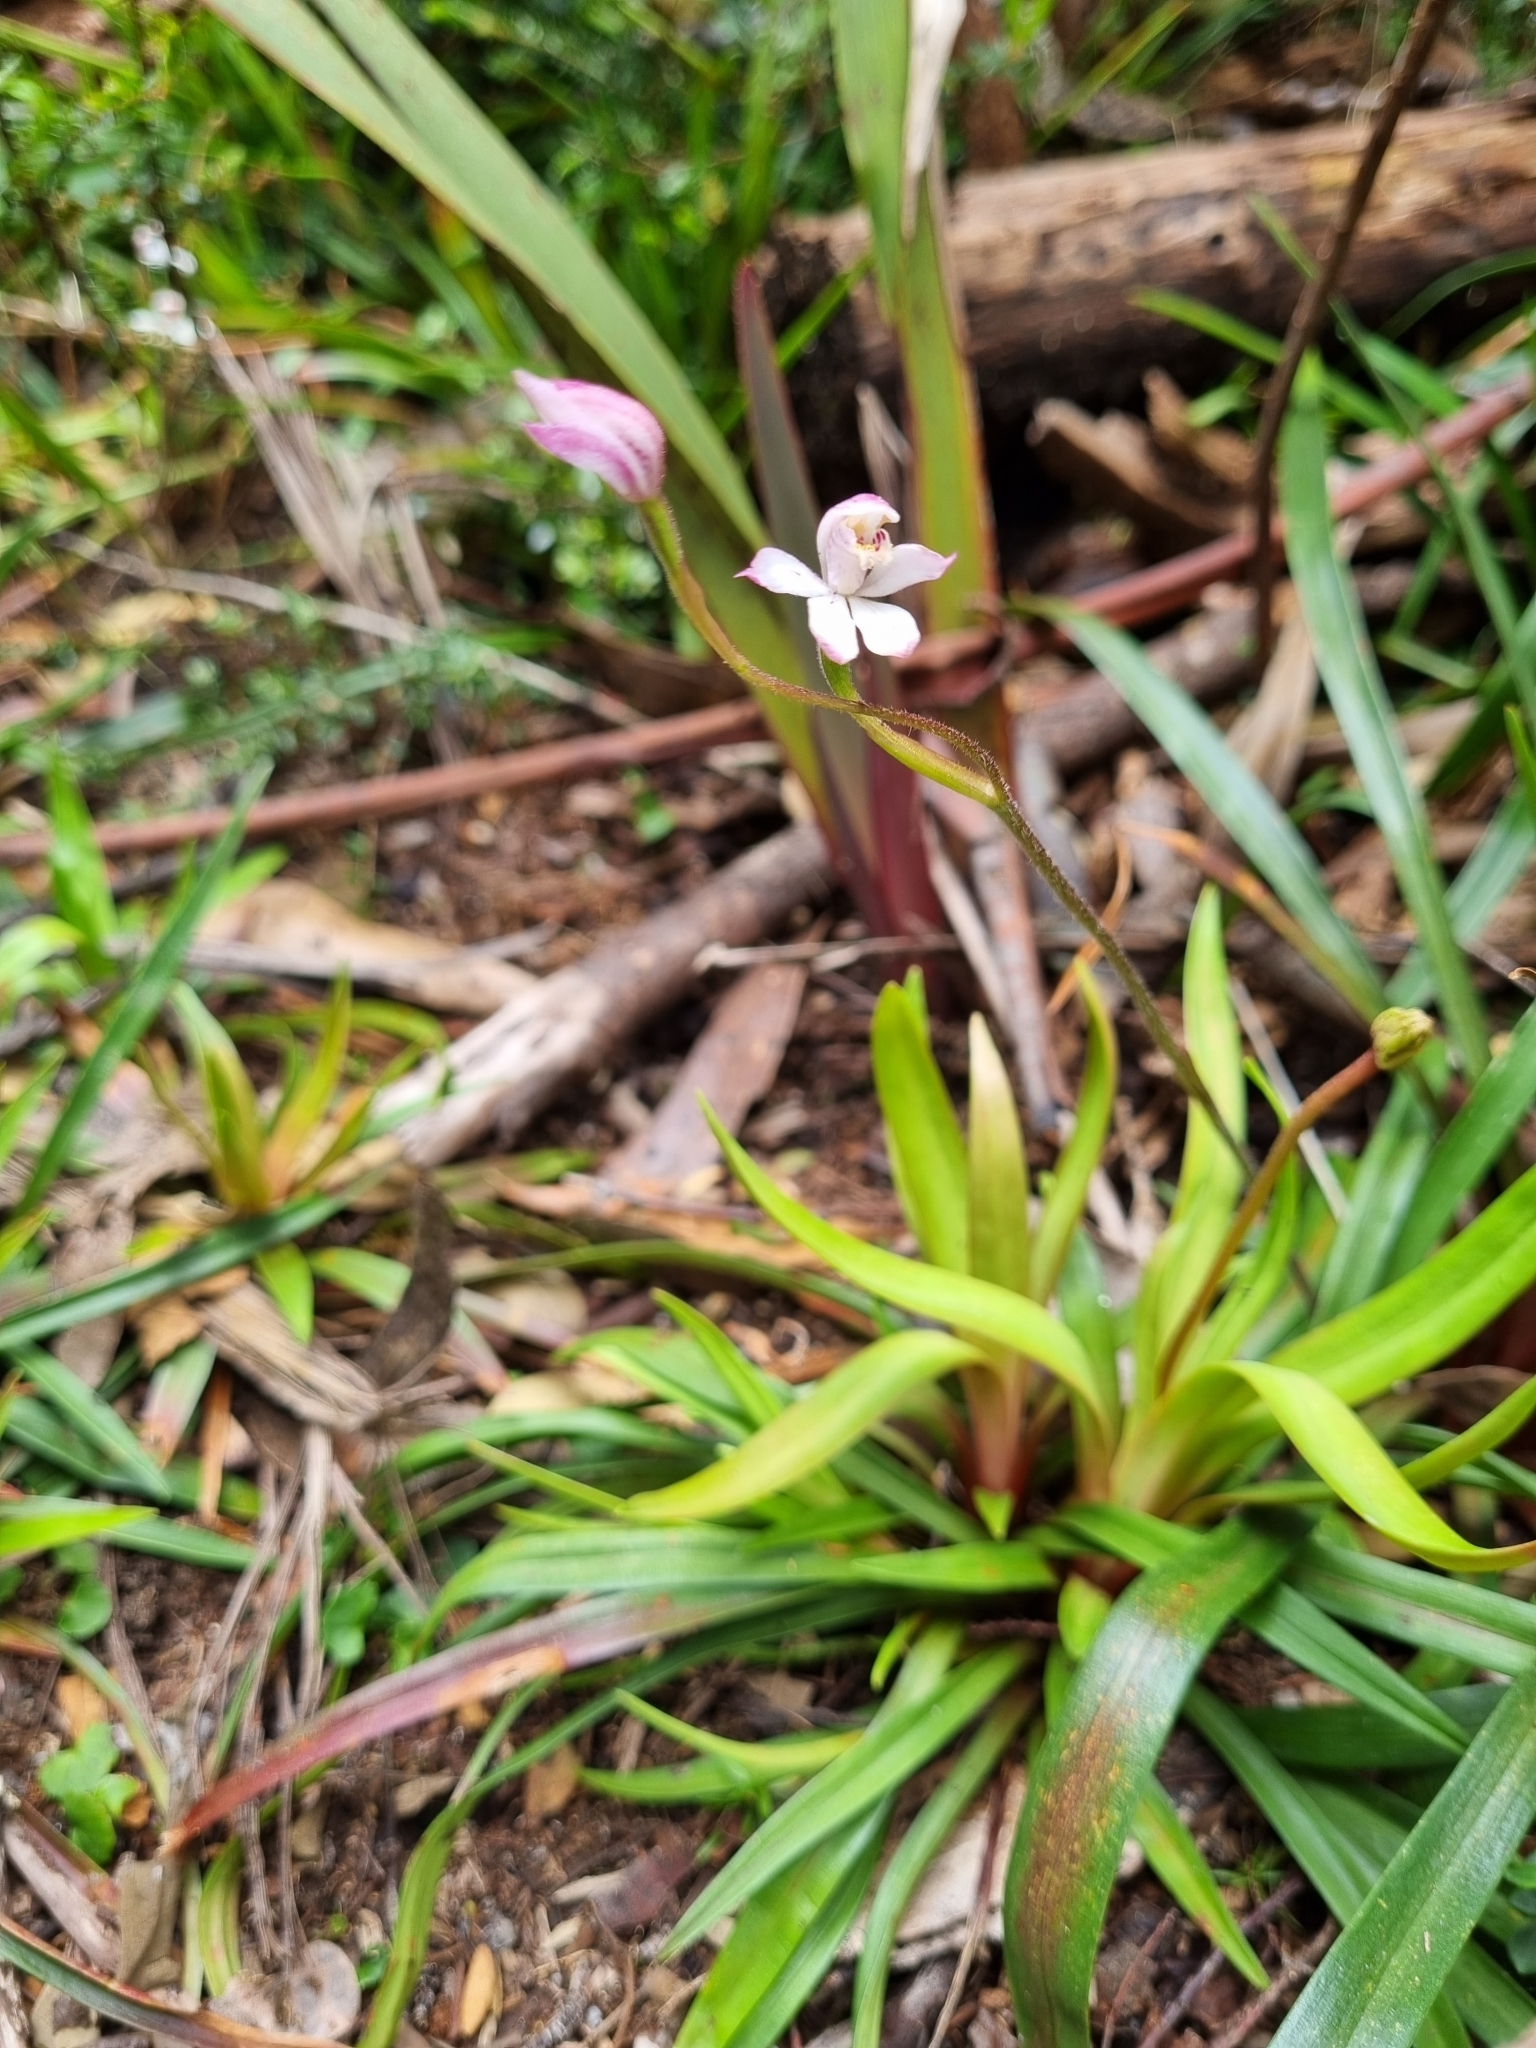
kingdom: Plantae
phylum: Tracheophyta
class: Liliopsida
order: Asparagales
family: Orchidaceae
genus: Caladenia
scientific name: Caladenia alpina
